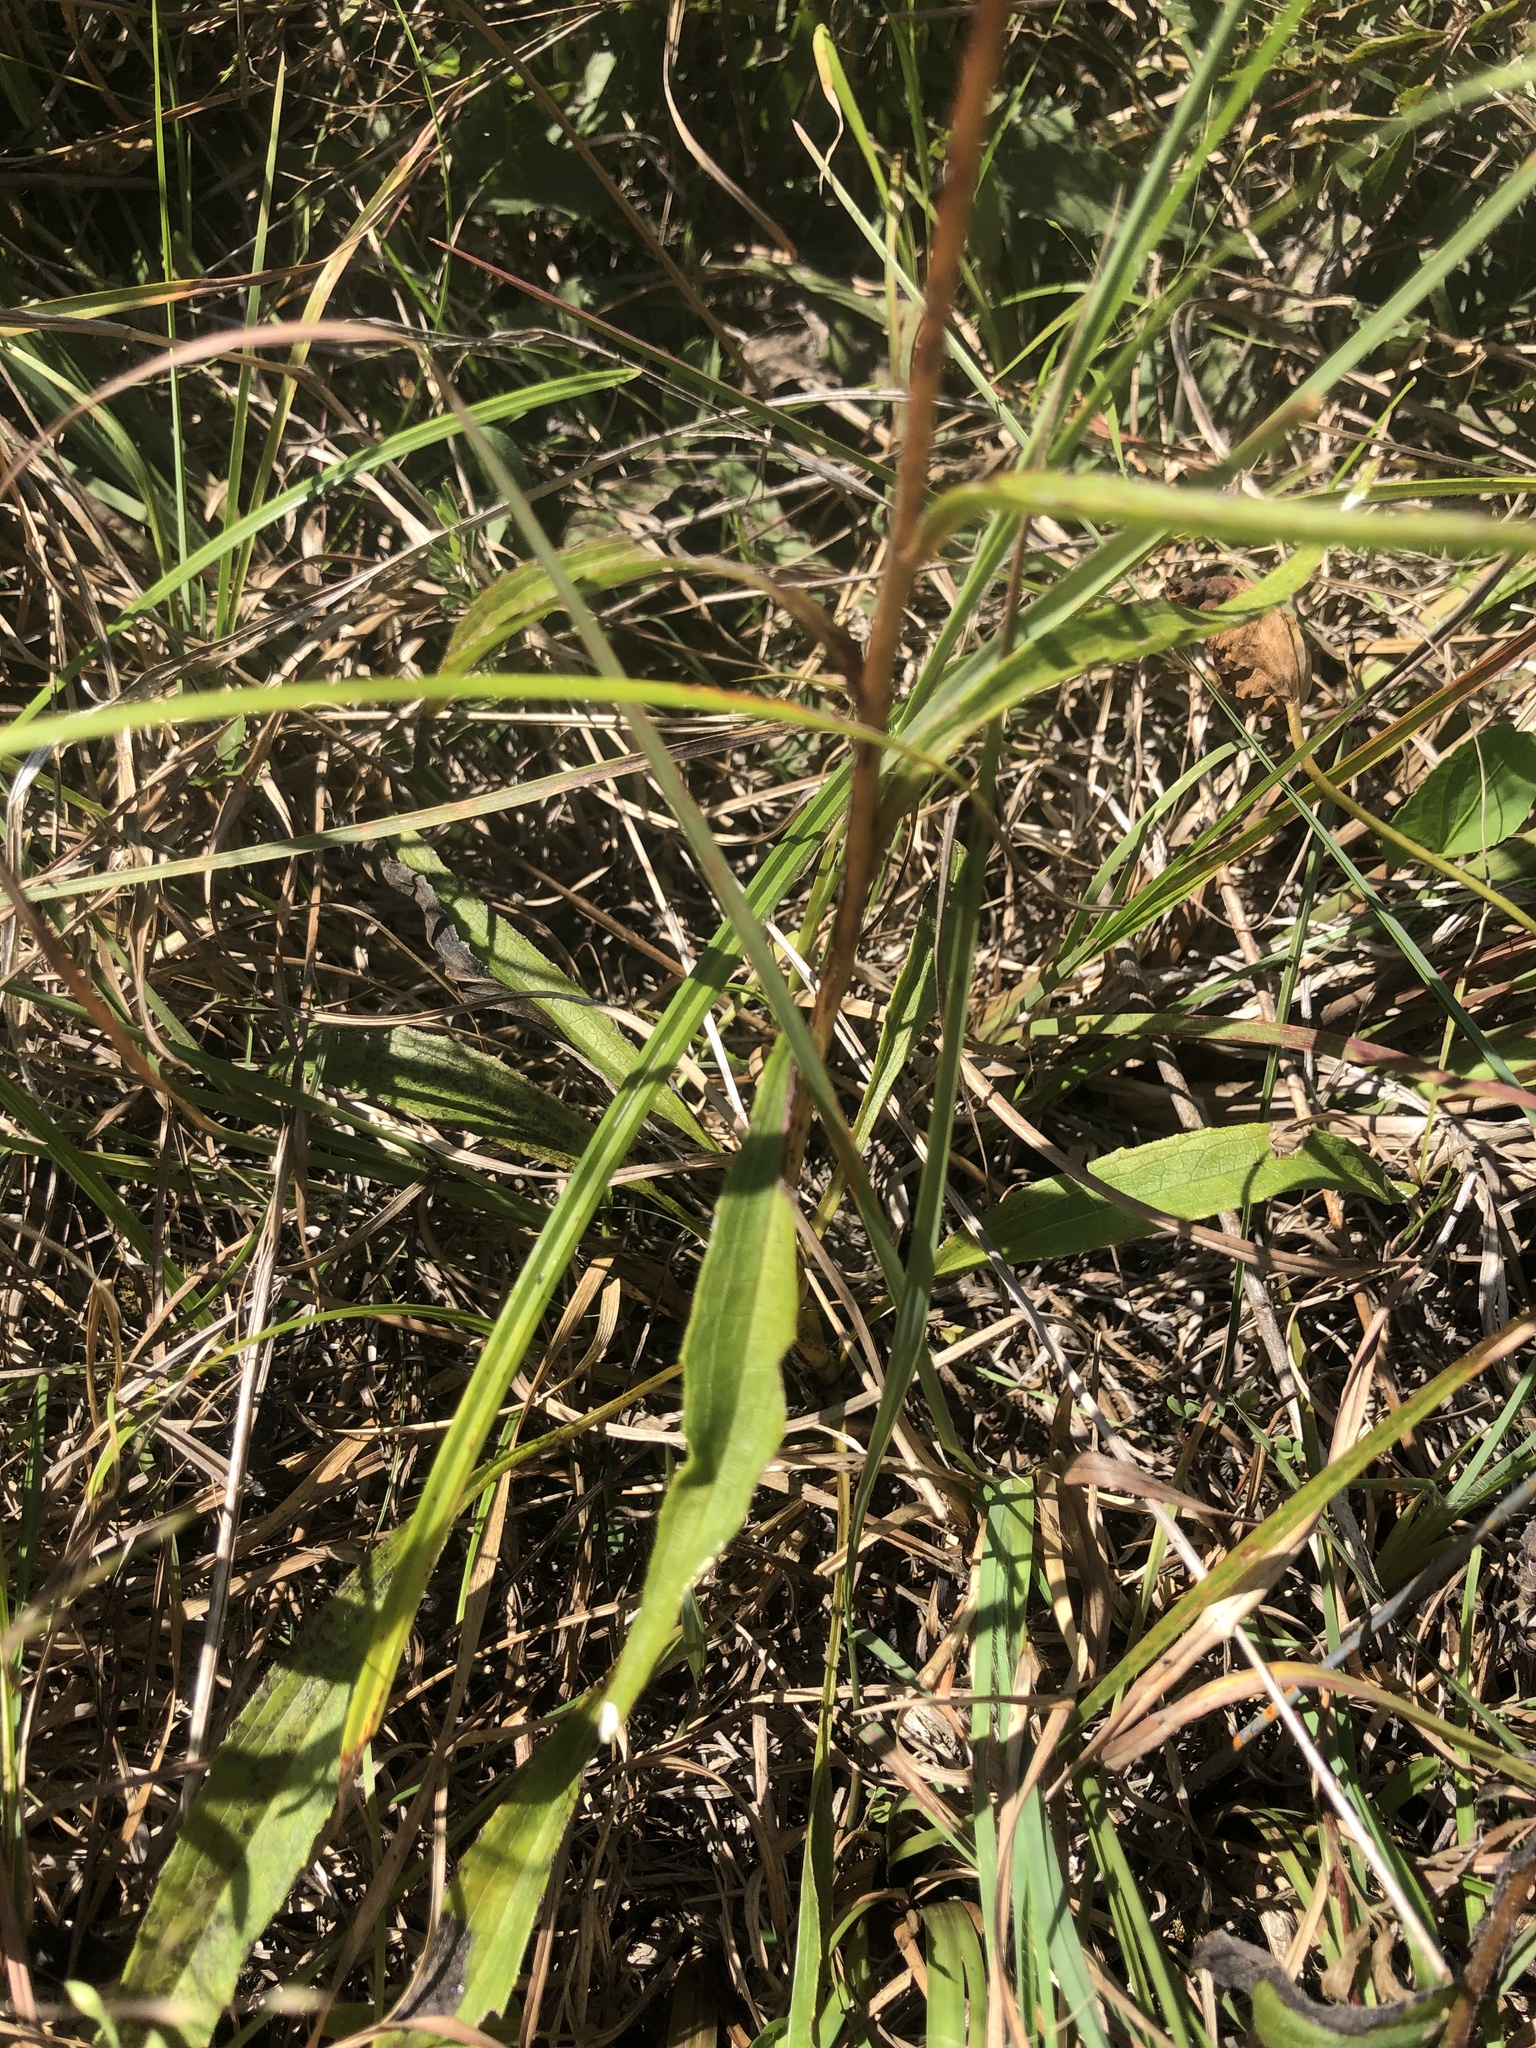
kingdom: Plantae
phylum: Tracheophyta
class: Magnoliopsida
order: Asterales
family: Asteraceae
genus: Marshallia
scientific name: Marshallia legrandii
